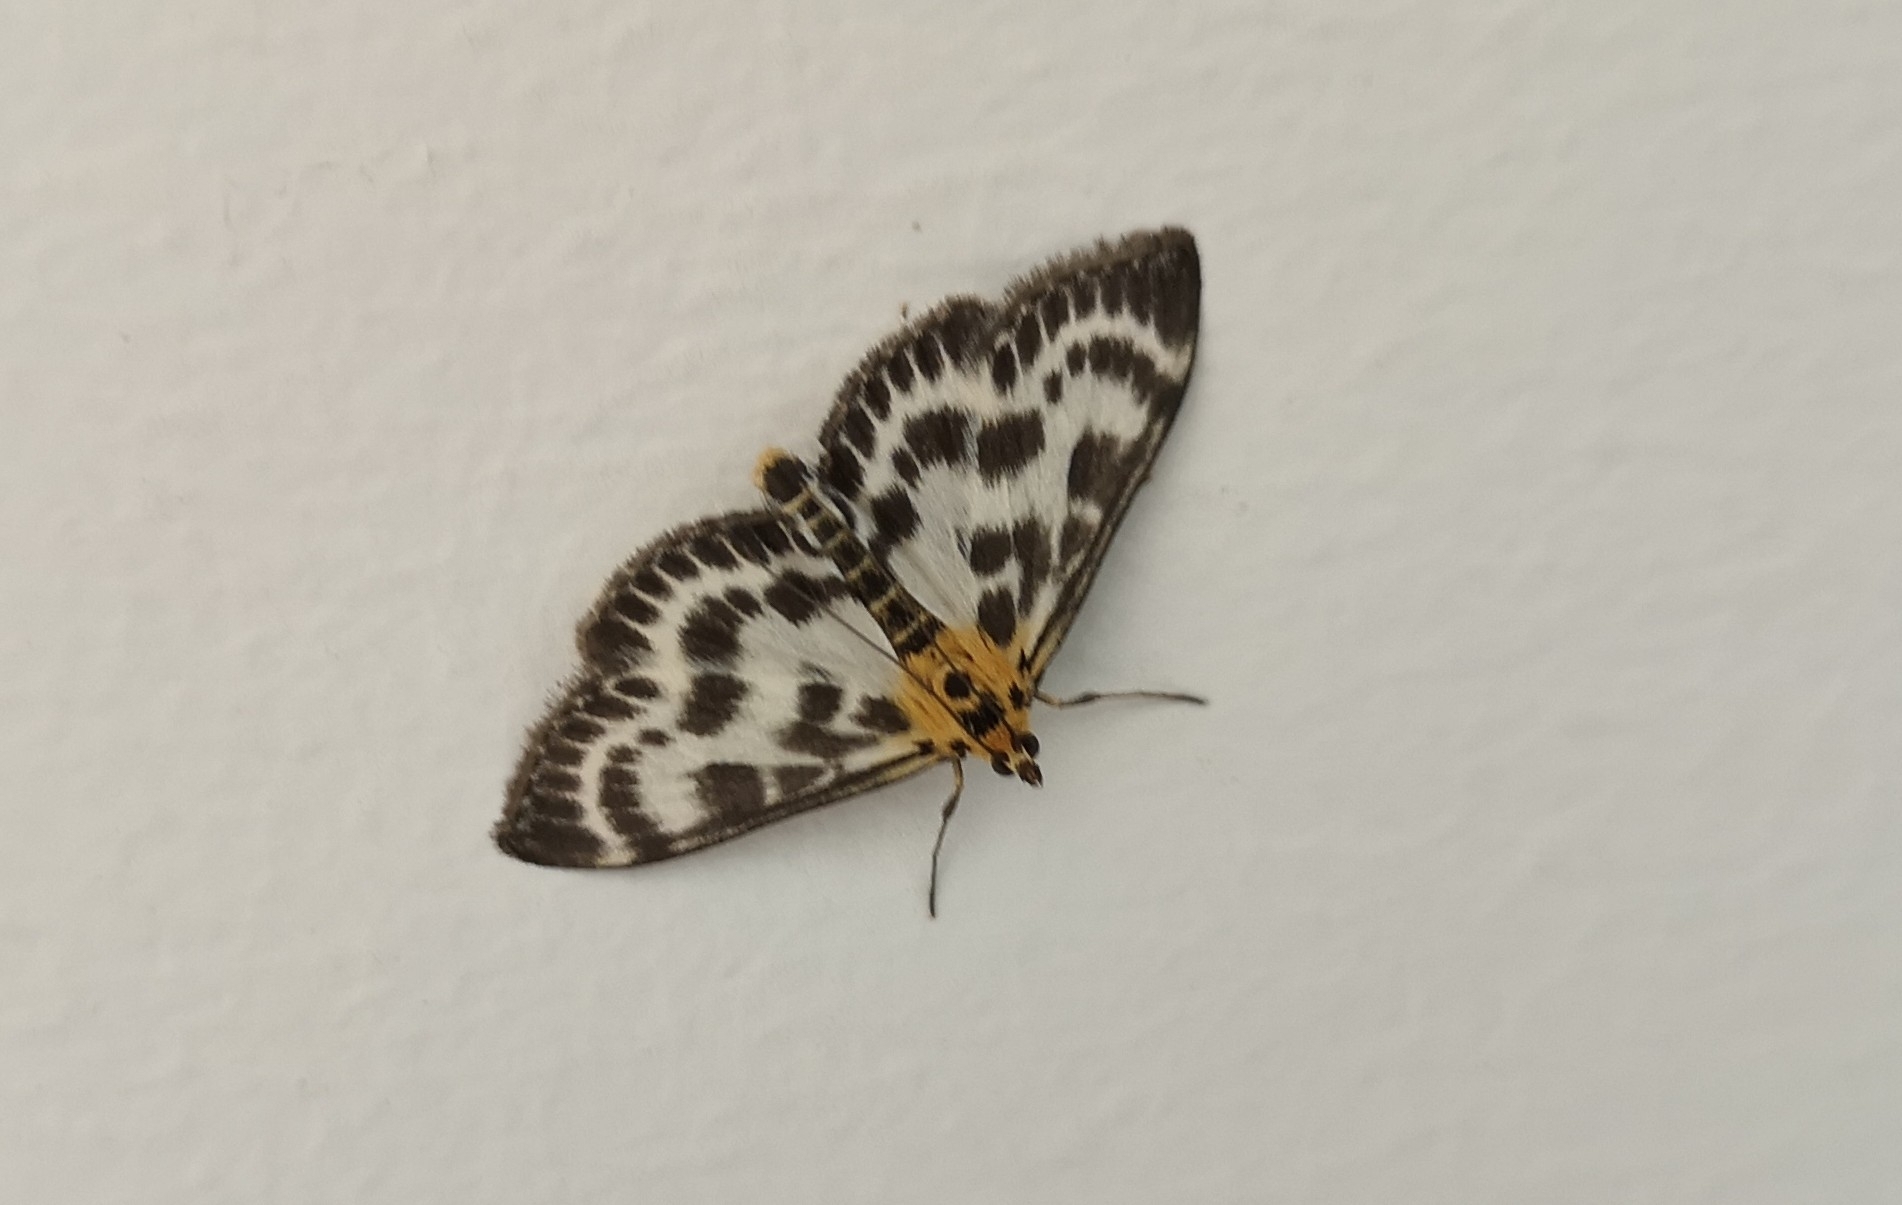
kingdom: Animalia
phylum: Arthropoda
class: Insecta
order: Lepidoptera
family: Crambidae
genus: Anania
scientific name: Anania hortulata
